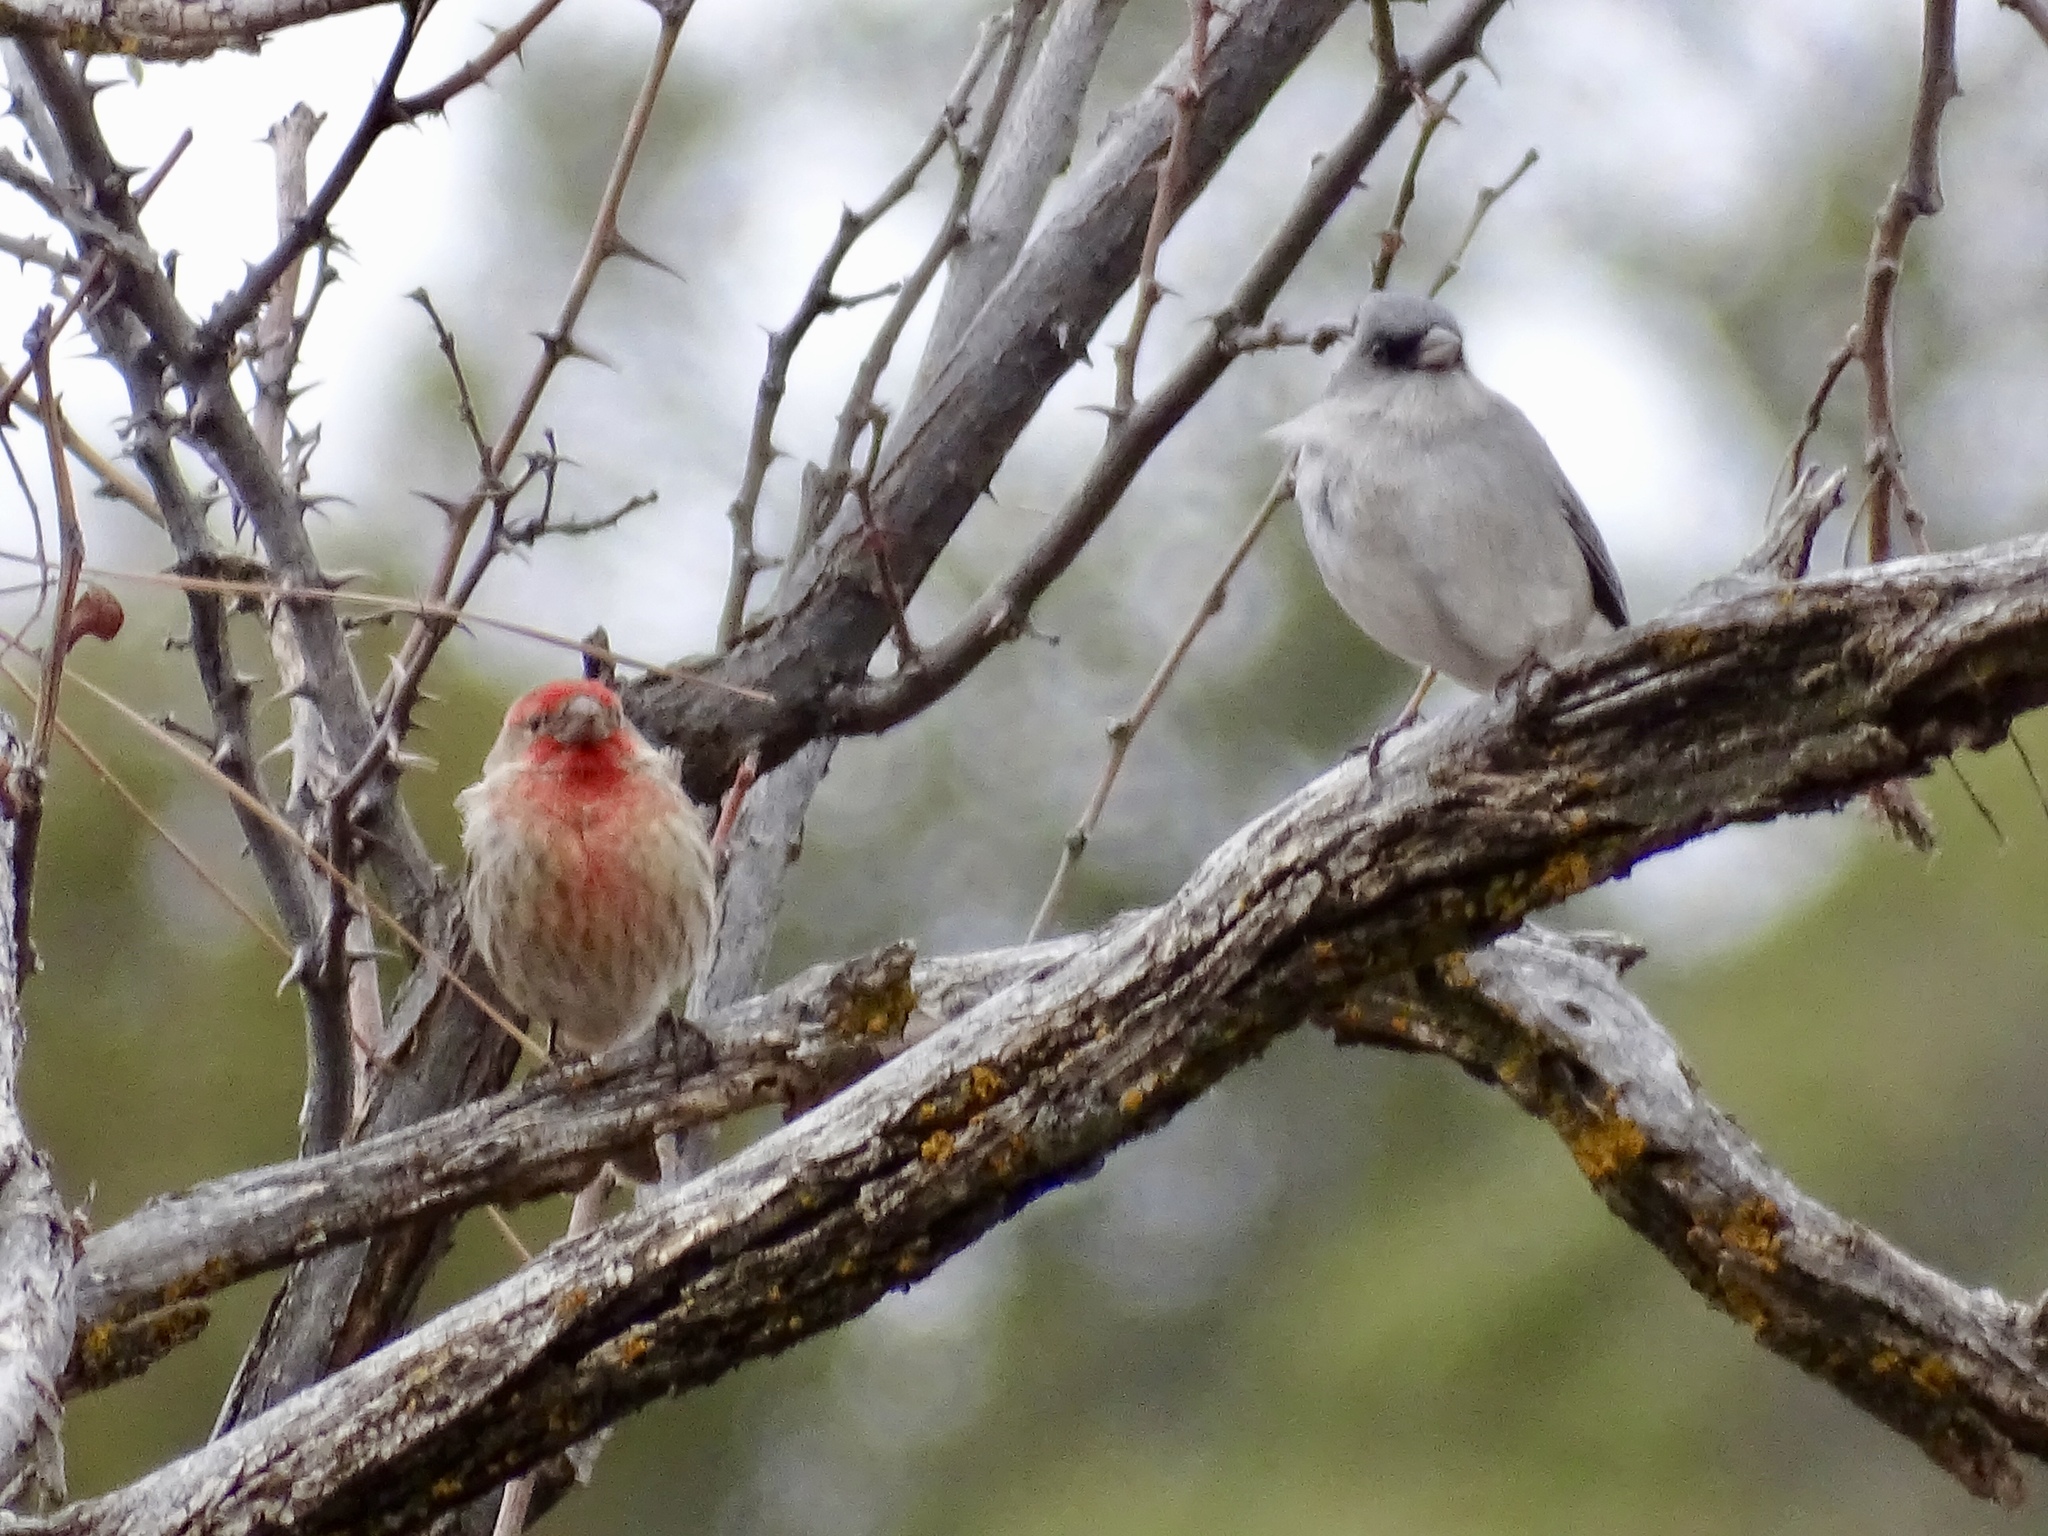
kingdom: Animalia
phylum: Chordata
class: Aves
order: Passeriformes
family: Passerellidae
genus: Junco
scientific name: Junco hyemalis
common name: Dark-eyed junco
